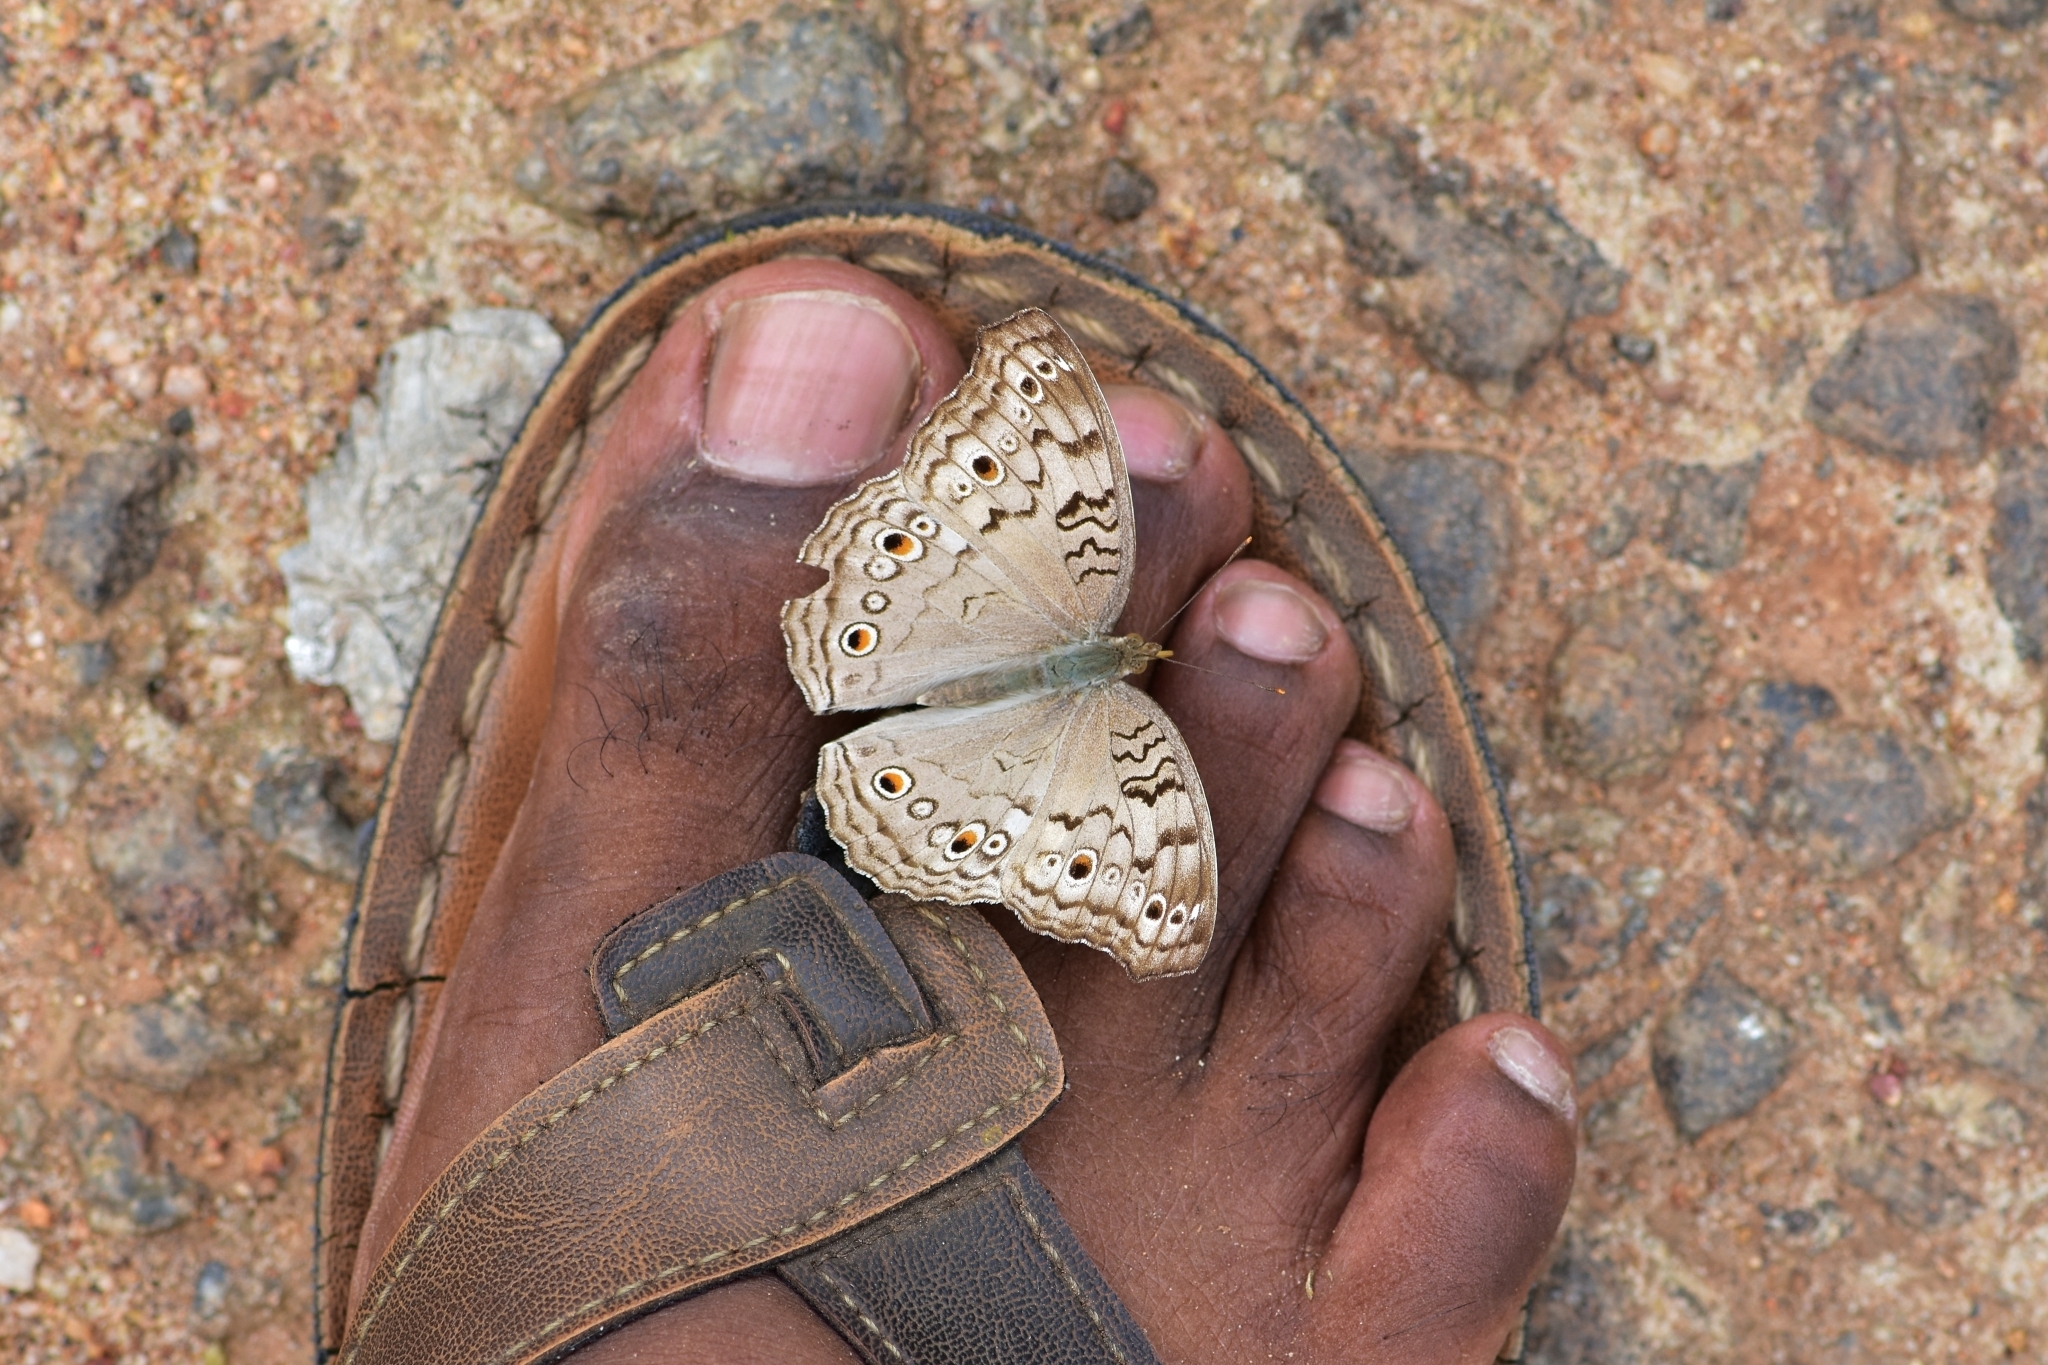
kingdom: Animalia
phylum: Arthropoda
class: Insecta
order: Lepidoptera
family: Nymphalidae
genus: Junonia
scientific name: Junonia atlites
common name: Grey pansy
